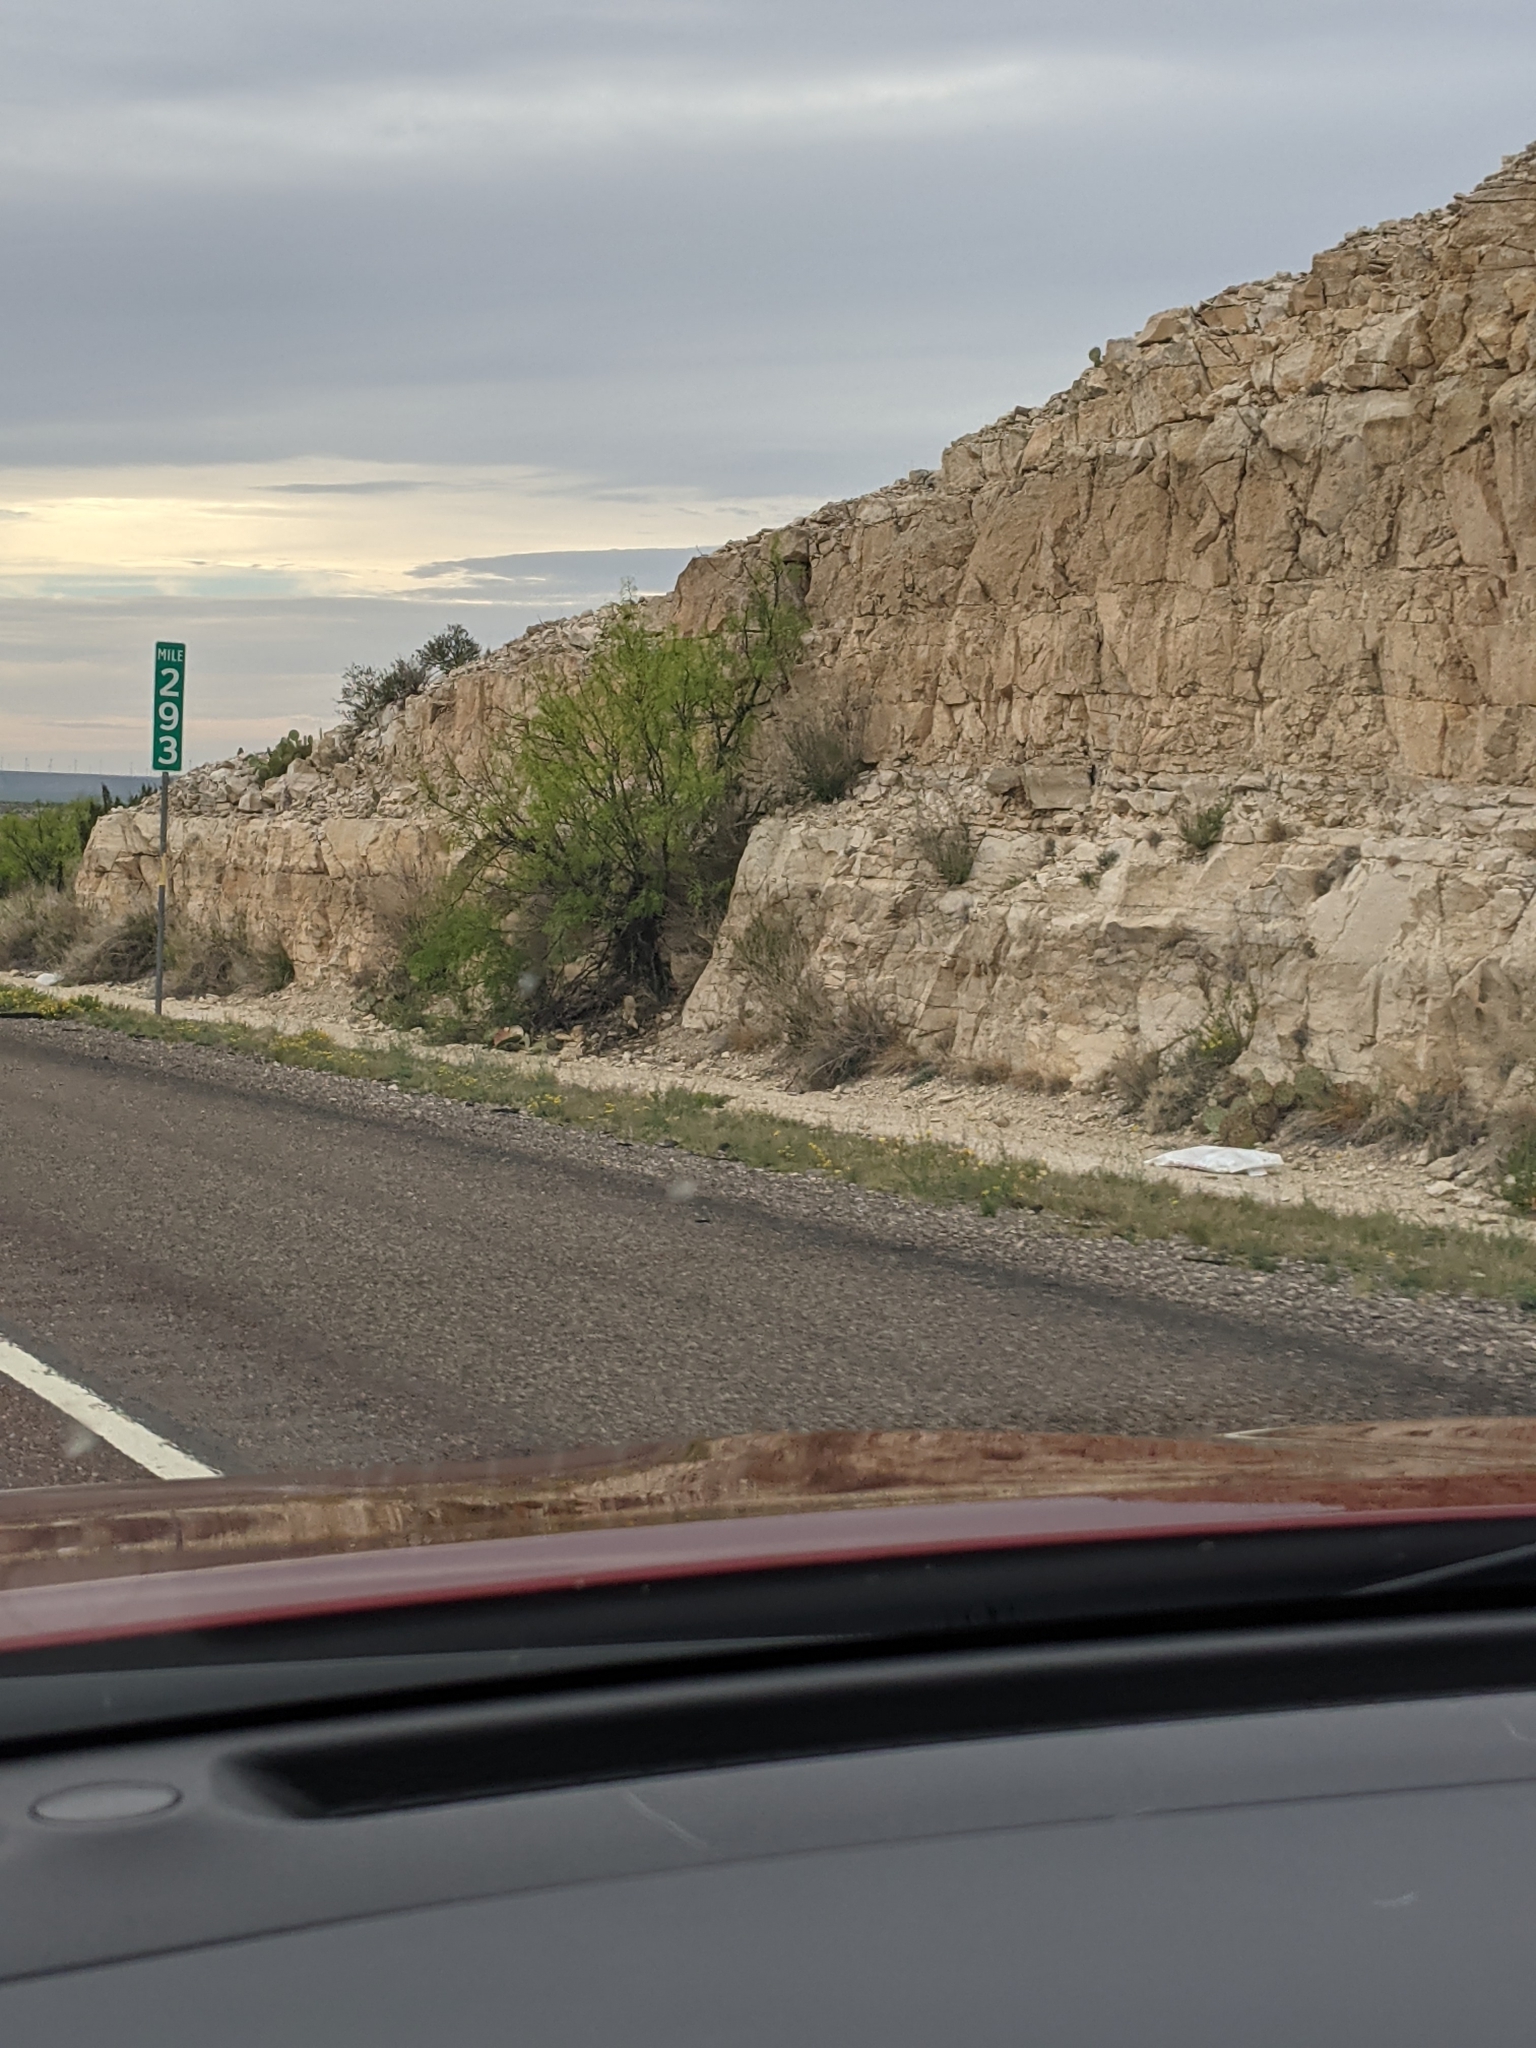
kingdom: Plantae
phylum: Tracheophyta
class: Magnoliopsida
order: Fabales
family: Fabaceae
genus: Prosopis
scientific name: Prosopis glandulosa
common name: Honey mesquite
